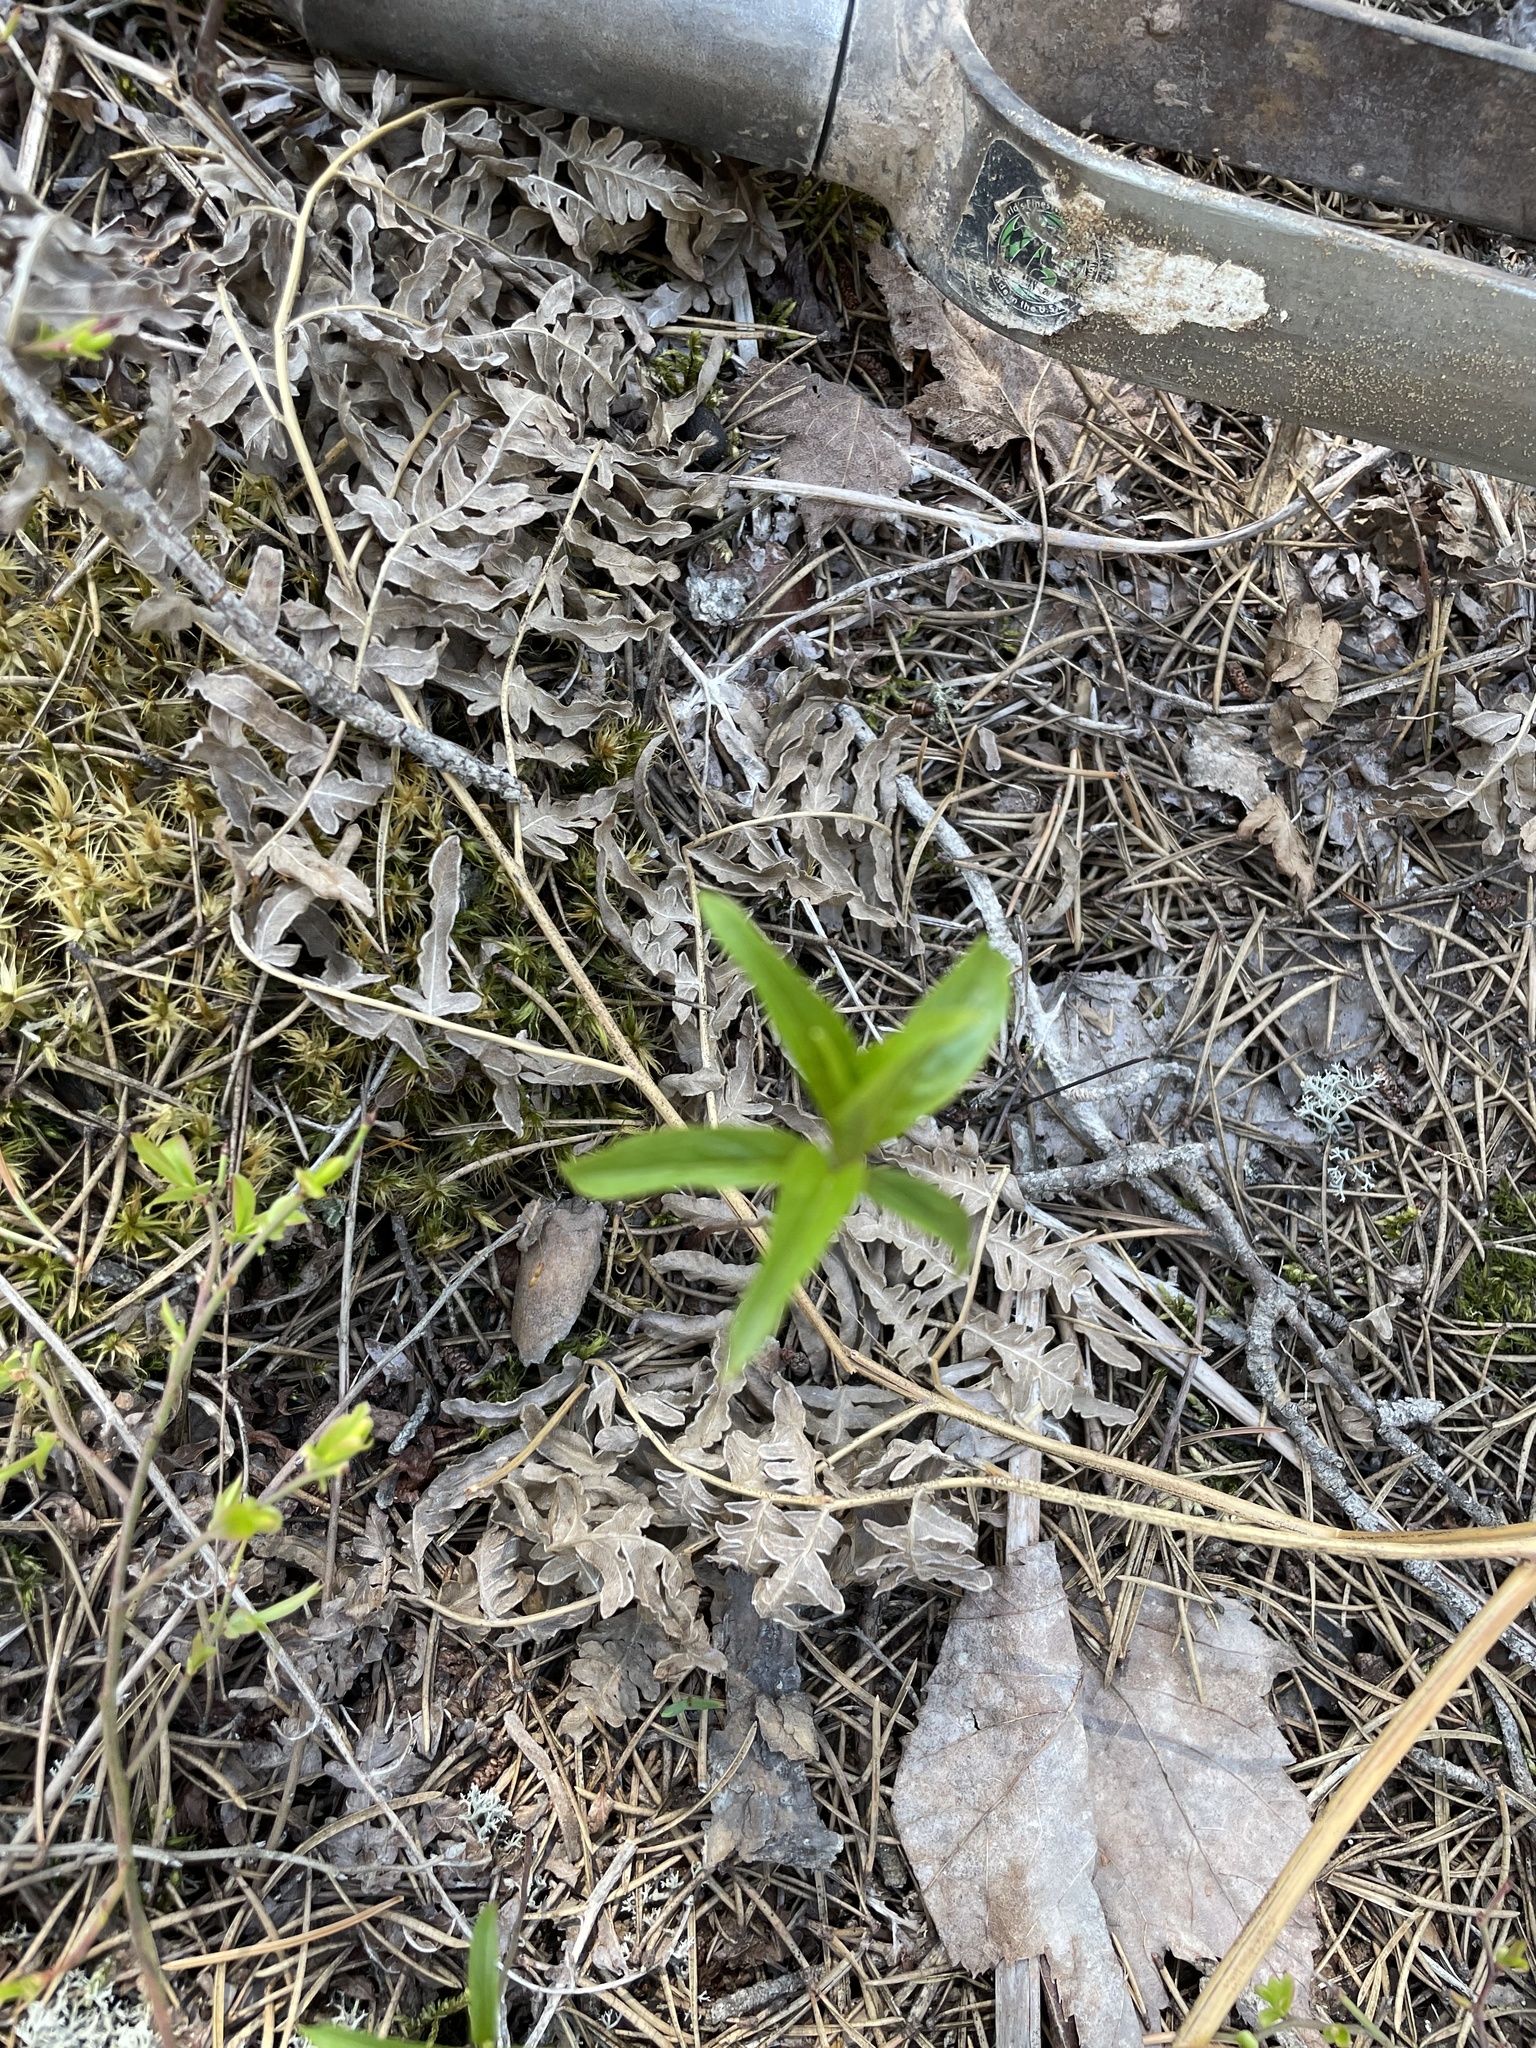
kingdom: Plantae
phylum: Tracheophyta
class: Magnoliopsida
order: Ericales
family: Primulaceae
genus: Lysimachia
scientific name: Lysimachia borealis
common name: American starflower
